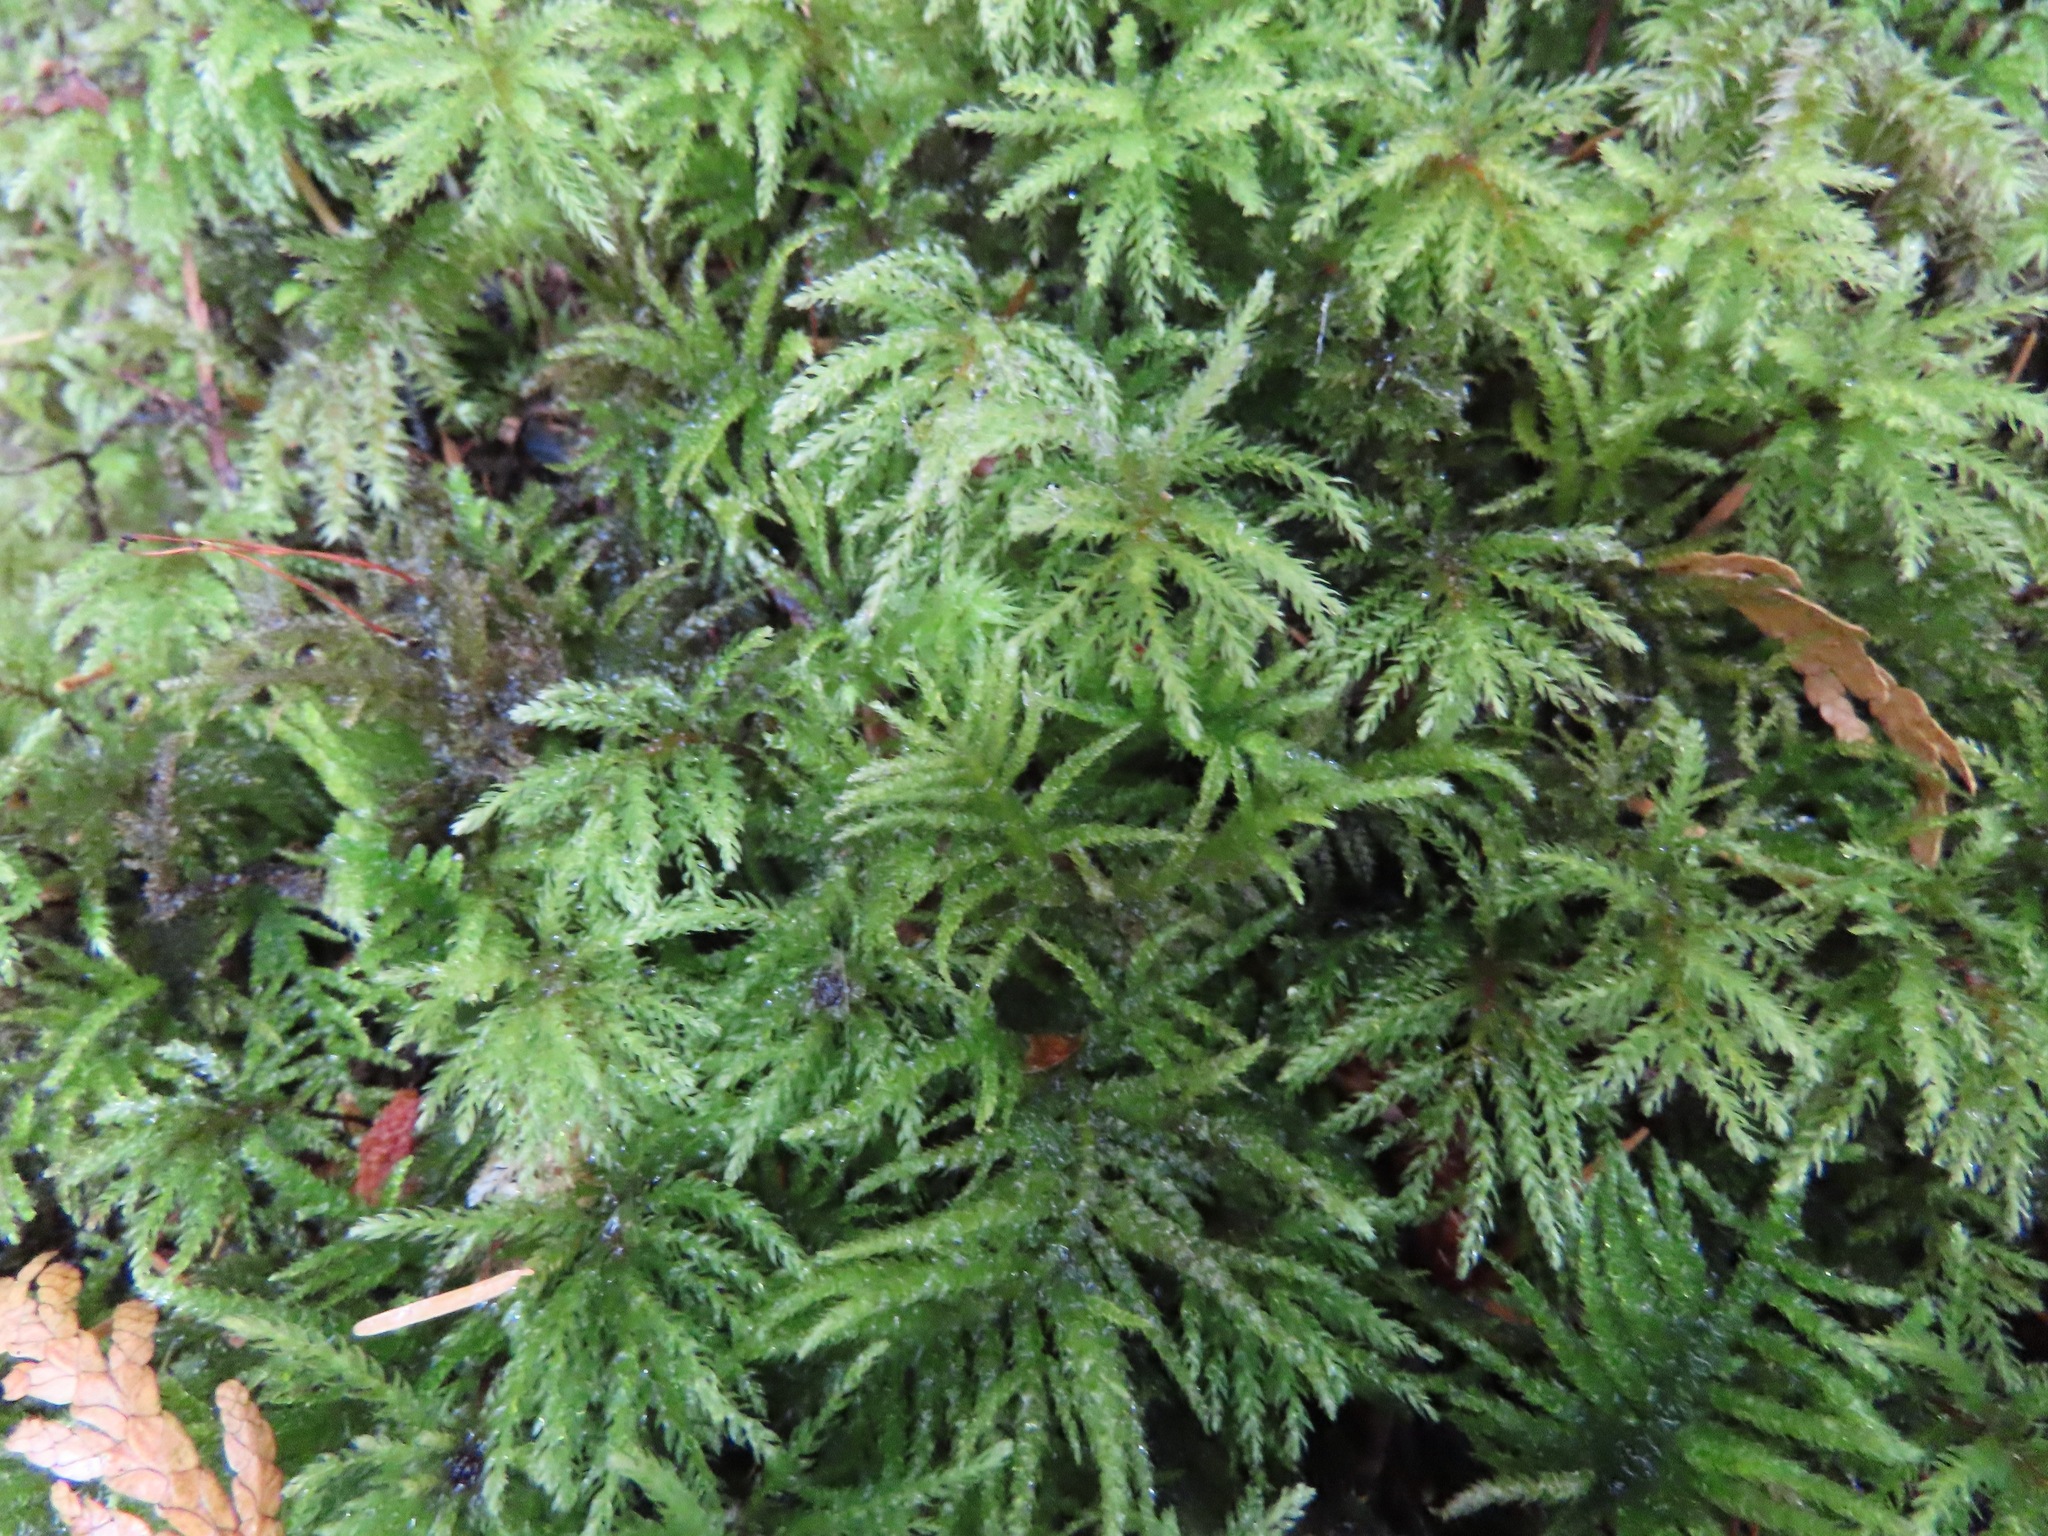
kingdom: Plantae
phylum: Bryophyta
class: Bryopsida
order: Bryales
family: Mniaceae
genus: Leucolepis
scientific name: Leucolepis acanthoneura
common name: Leucolepis umbrella moss
